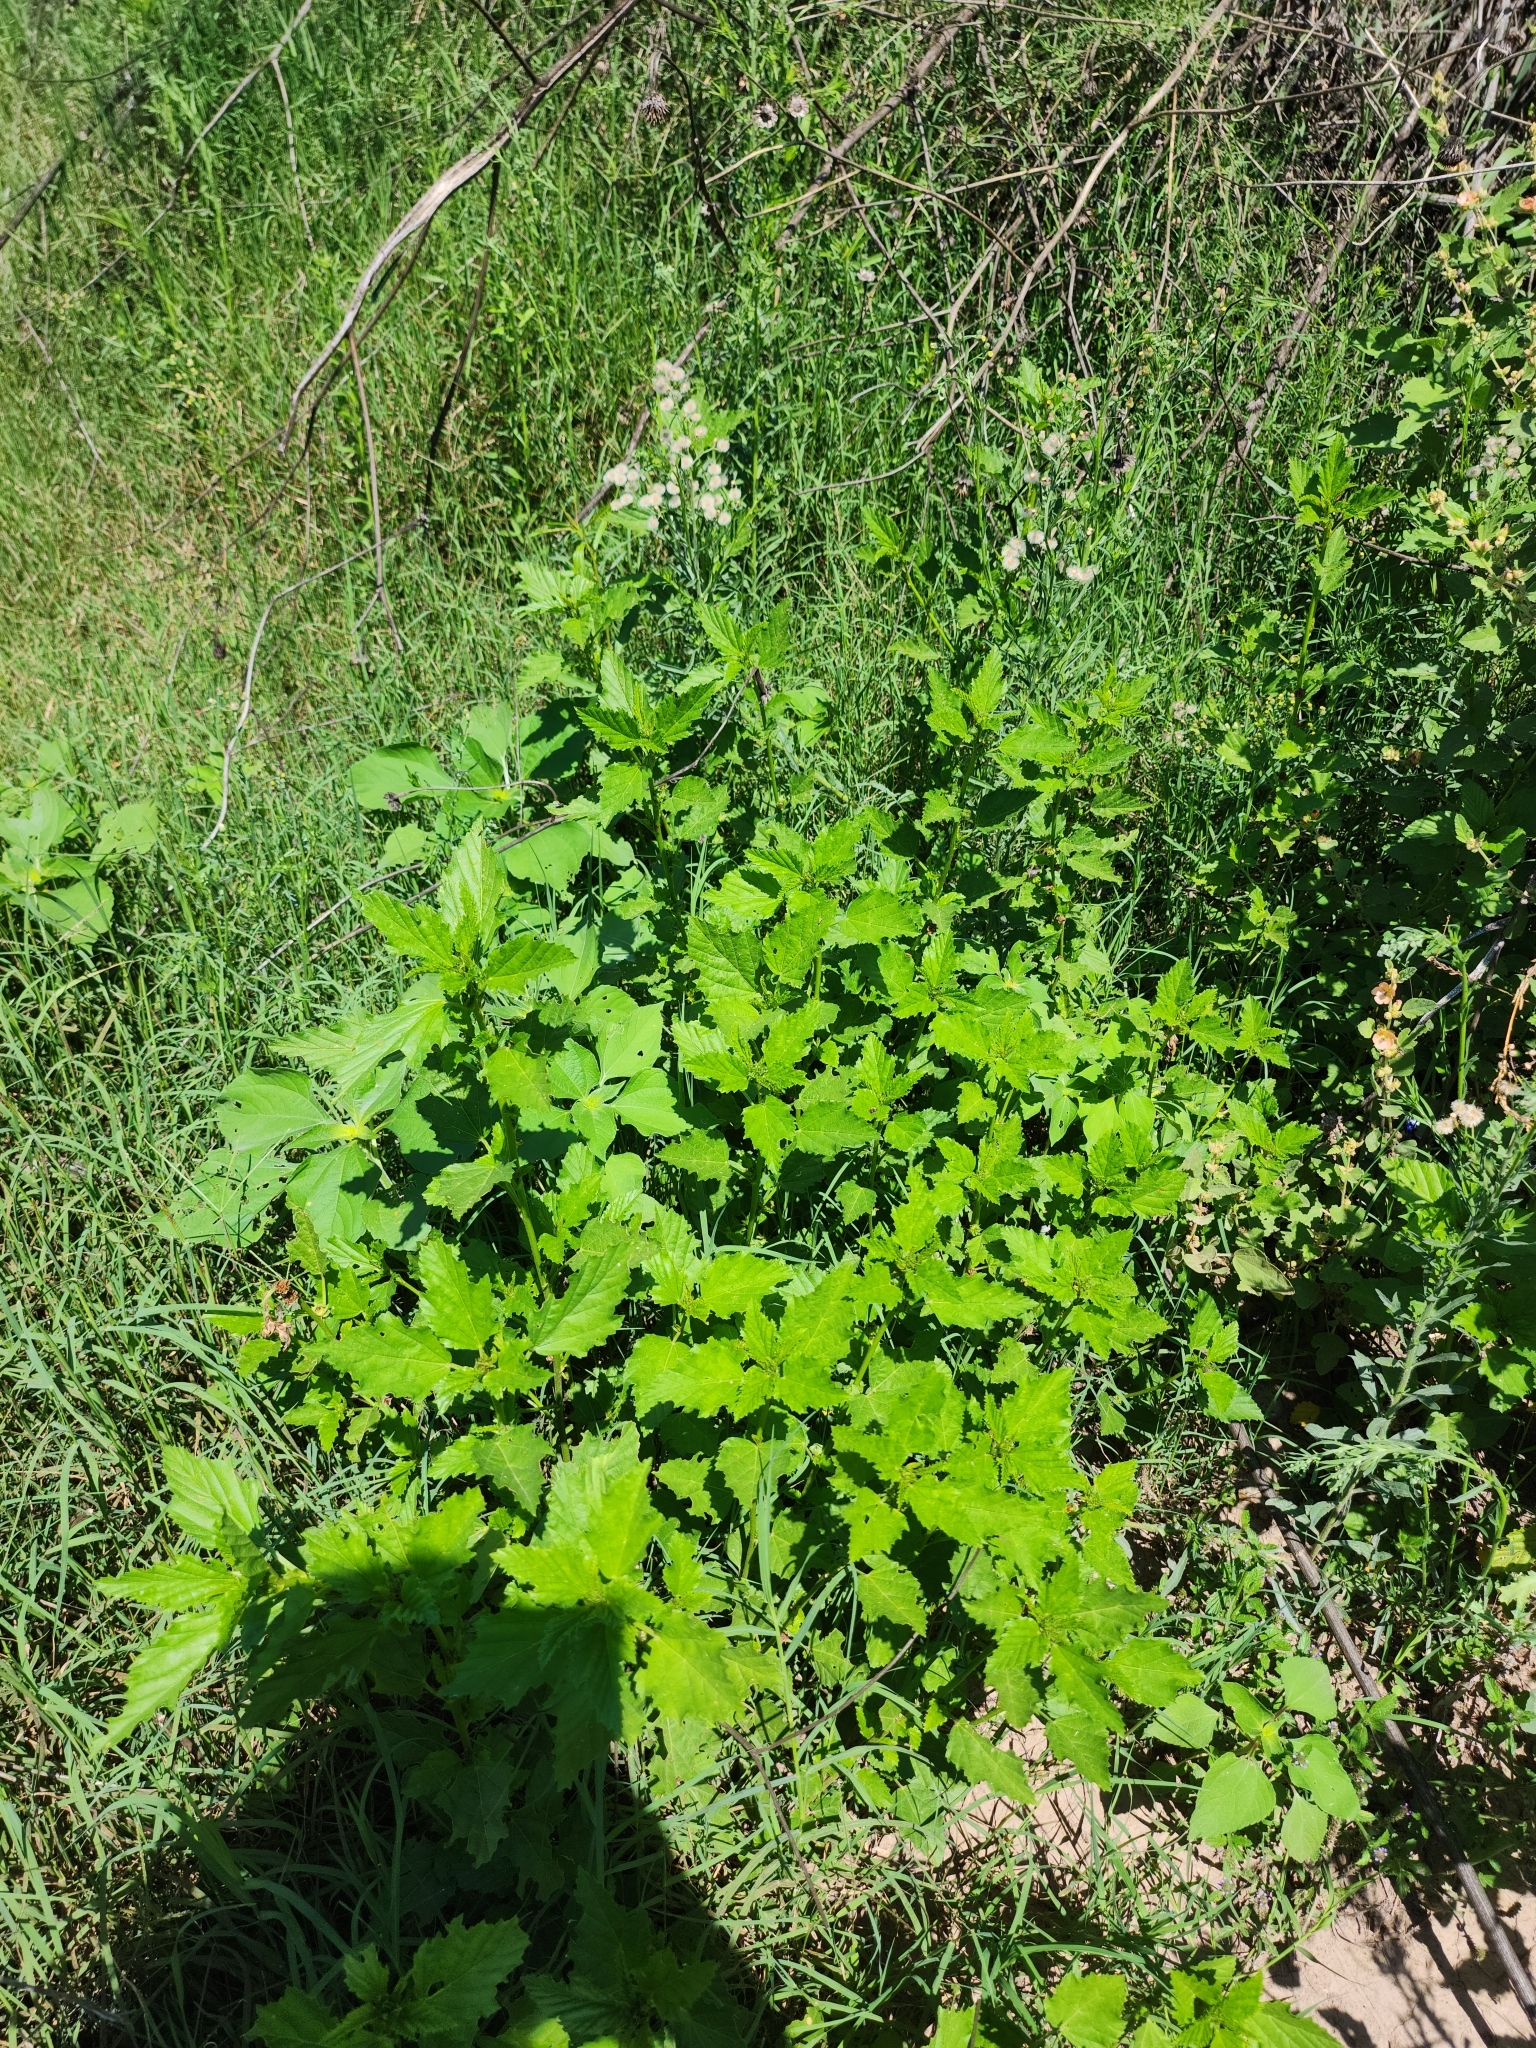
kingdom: Plantae
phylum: Tracheophyta
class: Magnoliopsida
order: Malvales
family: Malvaceae
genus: Malvastrum
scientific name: Malvastrum coromandelianum
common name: Threelobe false mallow
